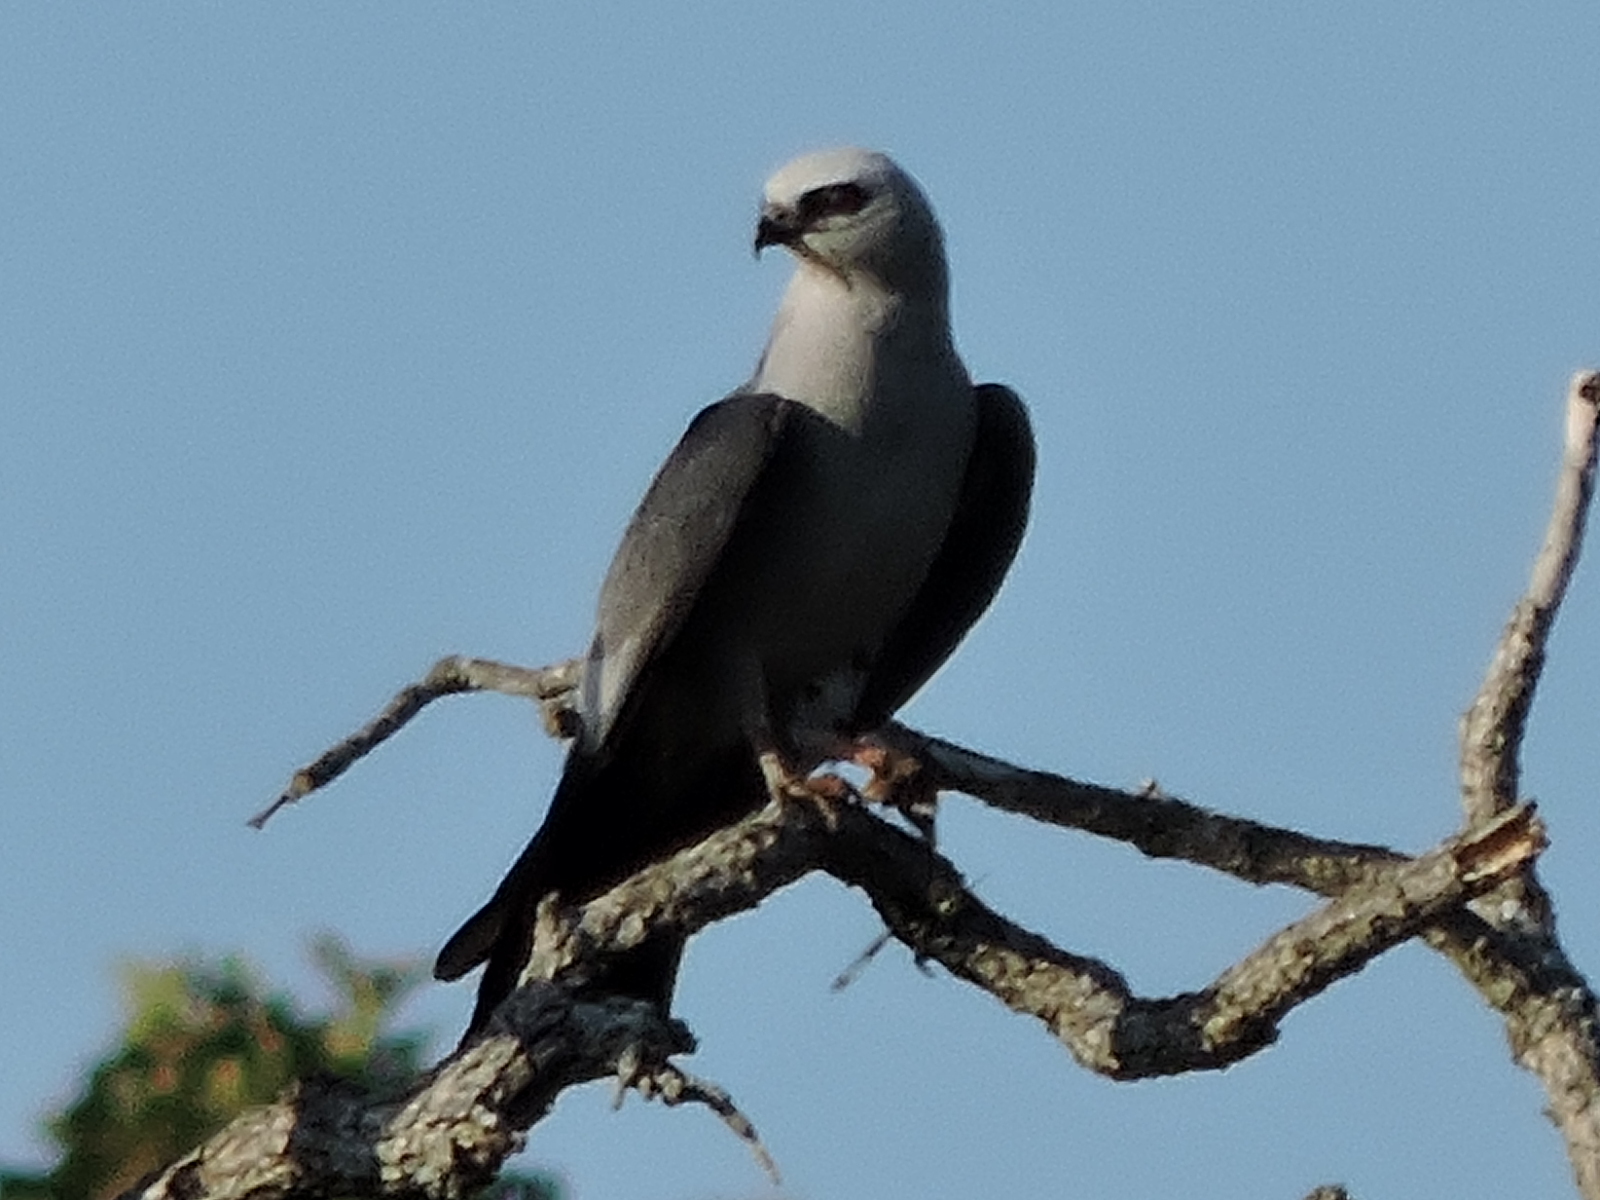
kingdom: Animalia
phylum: Chordata
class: Aves
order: Accipitriformes
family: Accipitridae
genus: Ictinia
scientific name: Ictinia mississippiensis
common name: Mississippi kite
